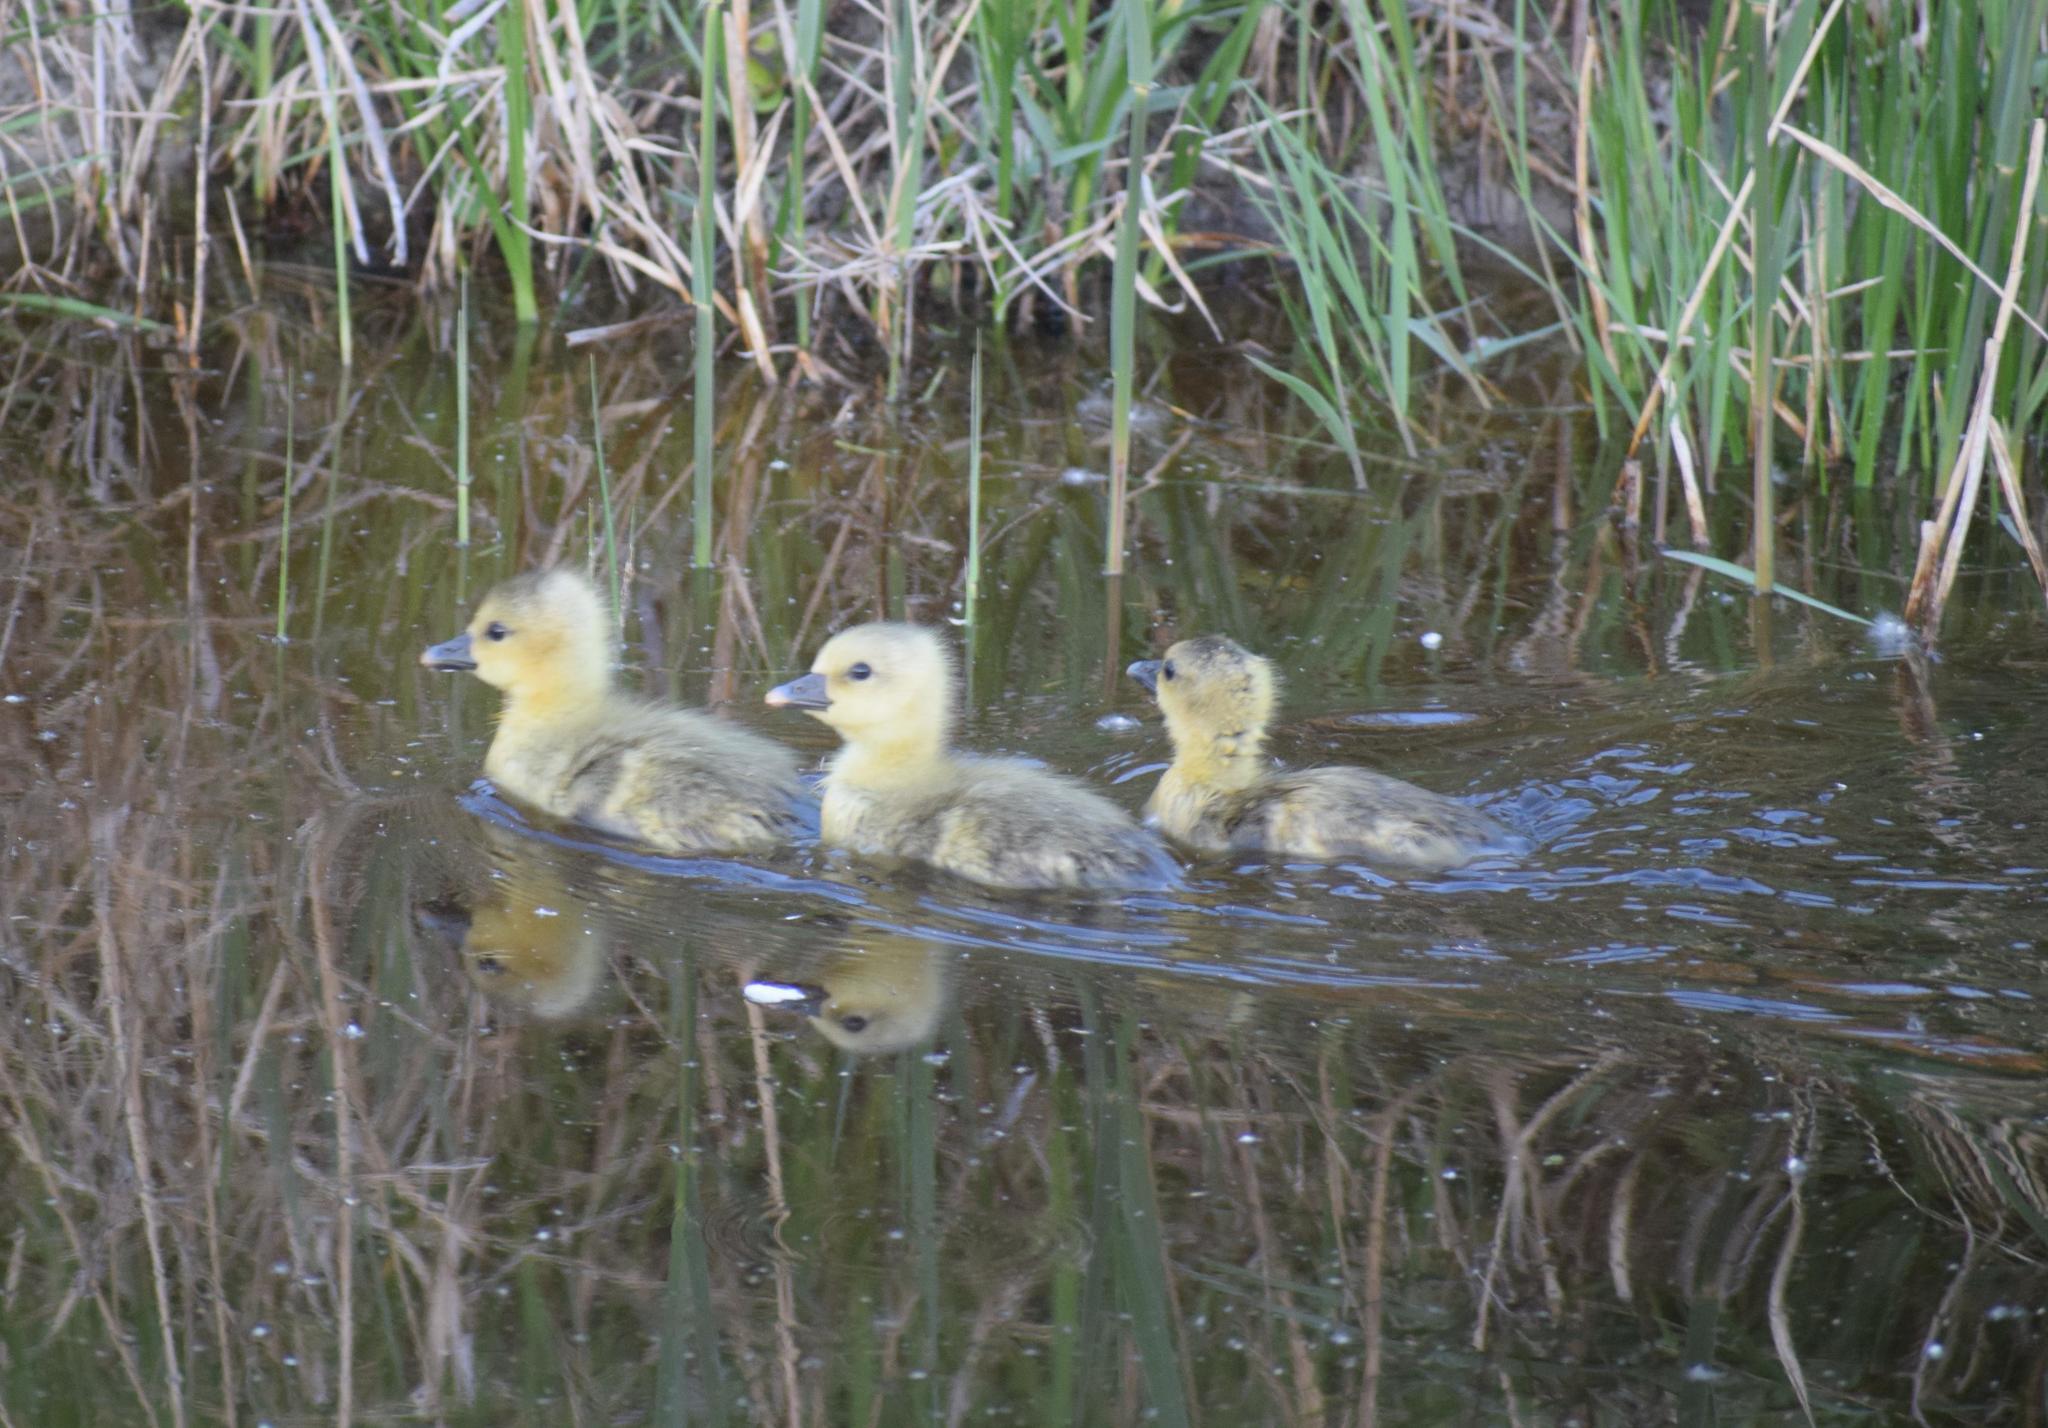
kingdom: Animalia
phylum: Chordata
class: Aves
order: Anseriformes
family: Anatidae
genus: Anas
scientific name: Anas platyrhynchos
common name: Mallard
